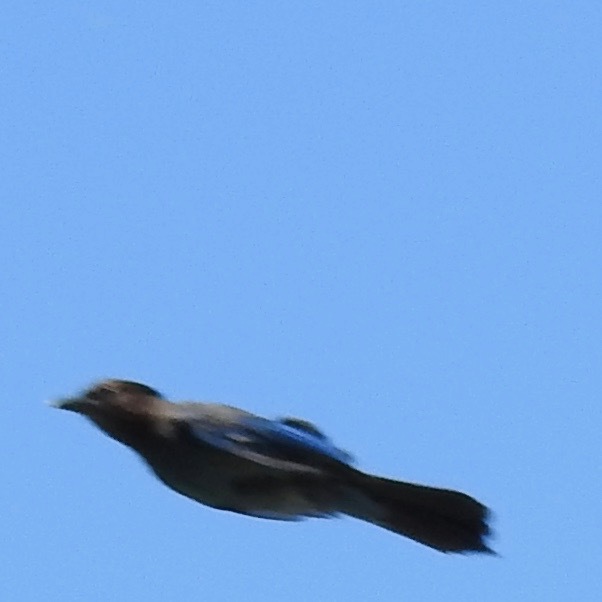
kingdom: Animalia
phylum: Chordata
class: Aves
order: Passeriformes
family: Corvidae
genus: Cyanocitta
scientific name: Cyanocitta stelleri
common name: Steller's jay
